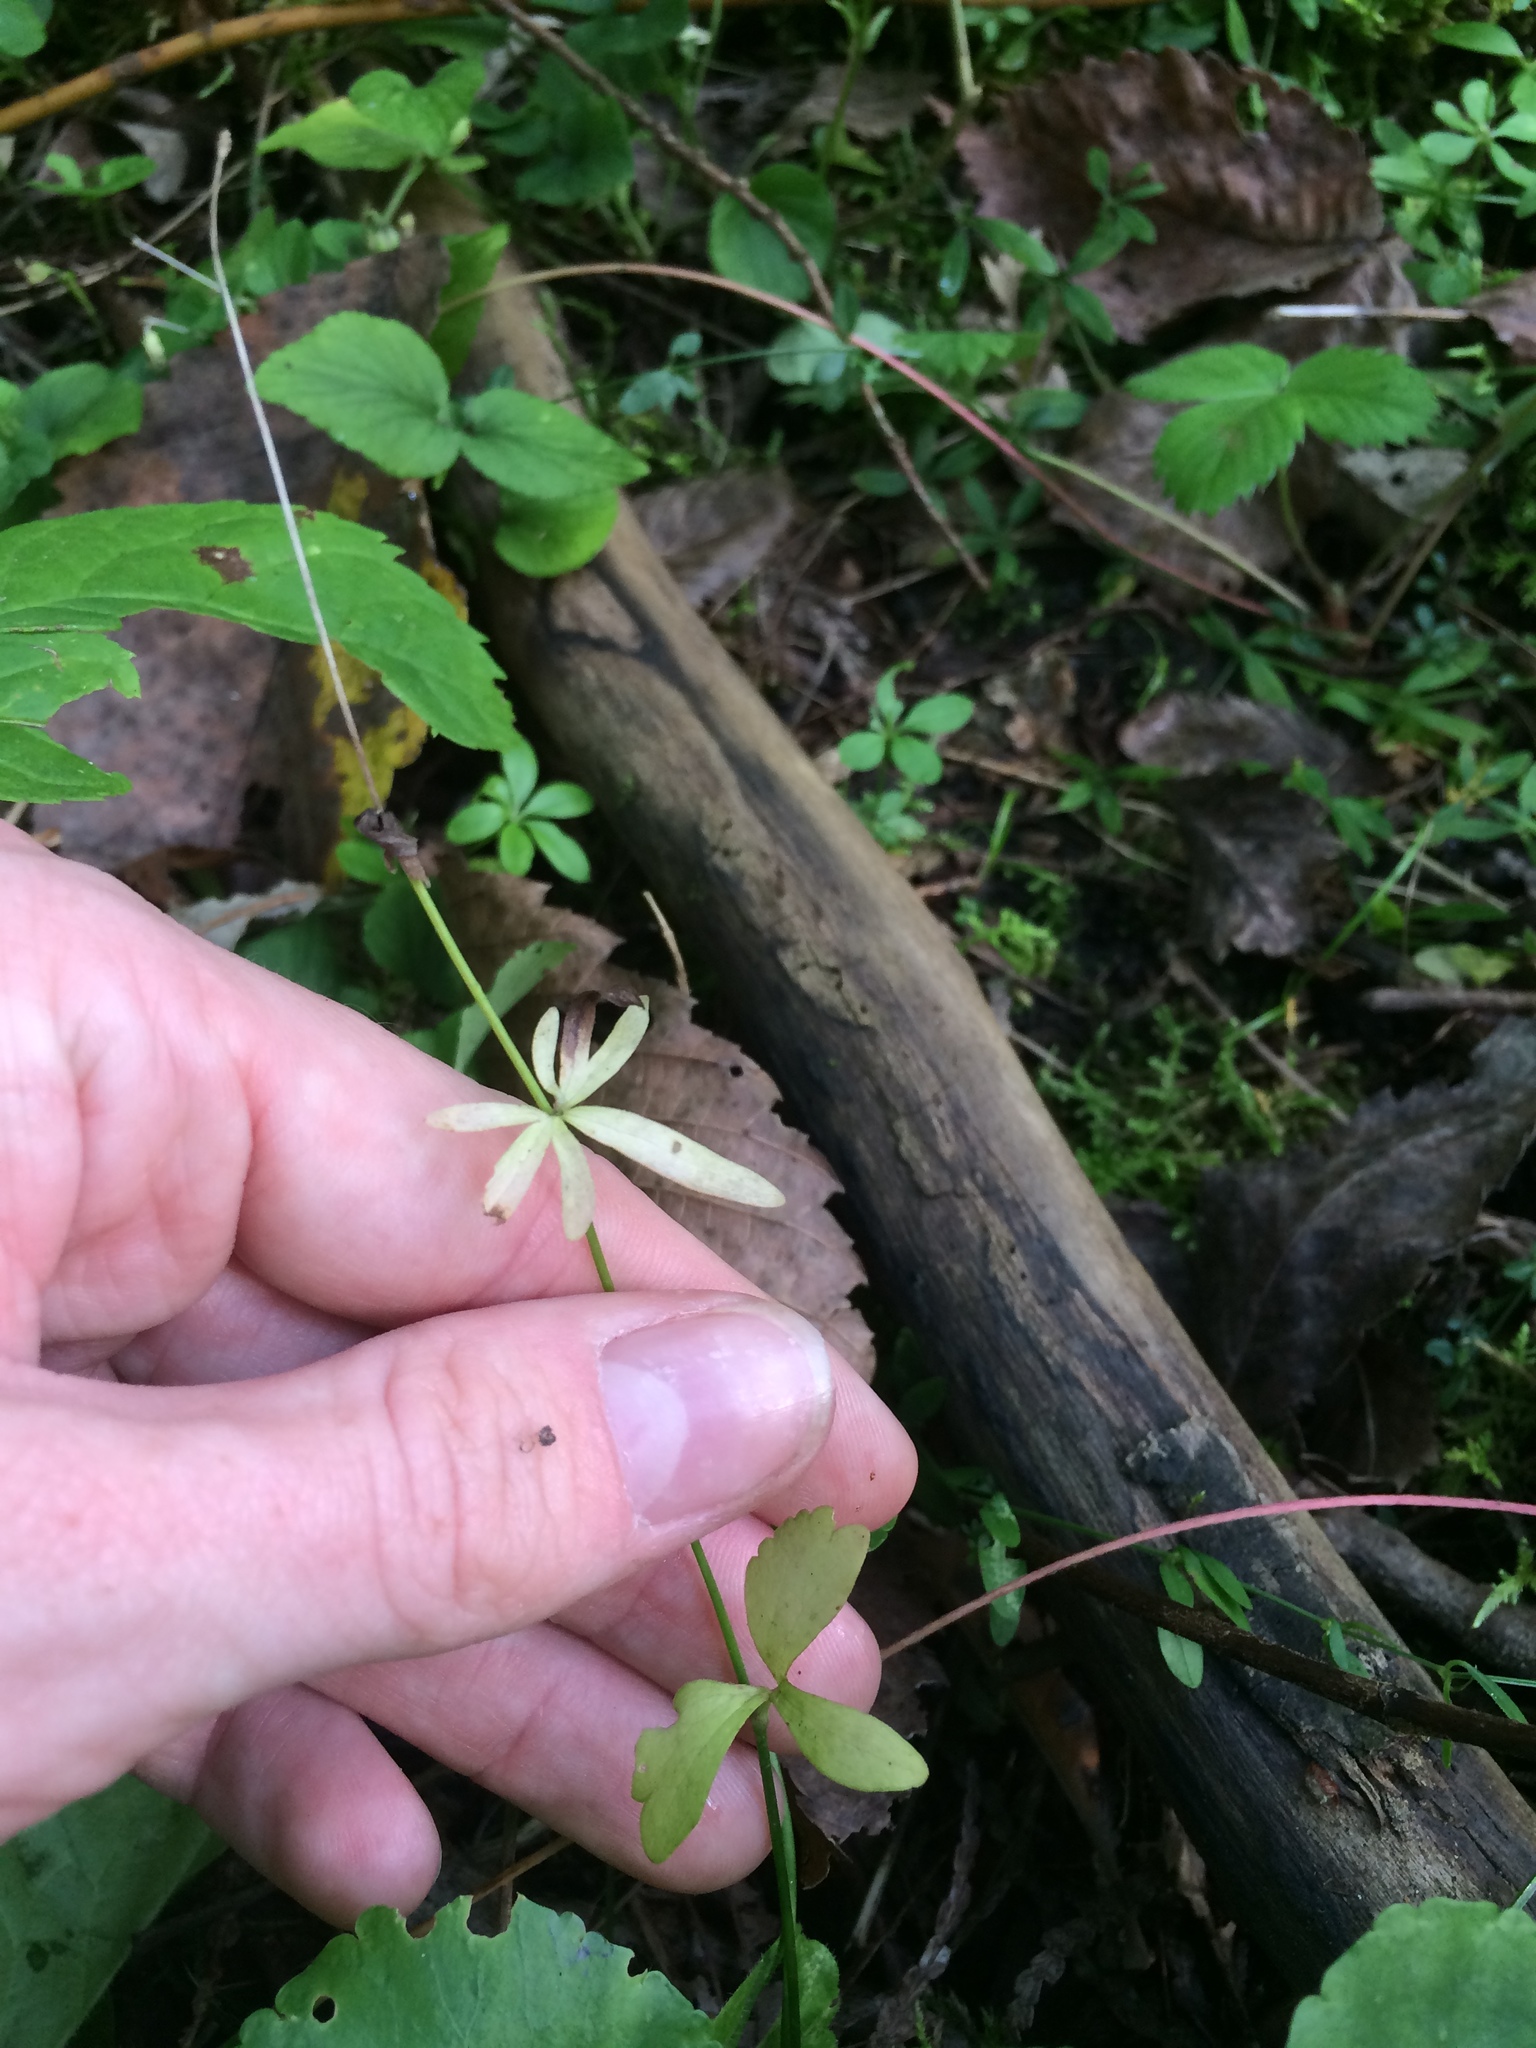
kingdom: Plantae
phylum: Tracheophyta
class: Magnoliopsida
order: Ranunculales
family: Ranunculaceae
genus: Ranunculus
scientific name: Ranunculus abortivus
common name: Early wood buttercup
